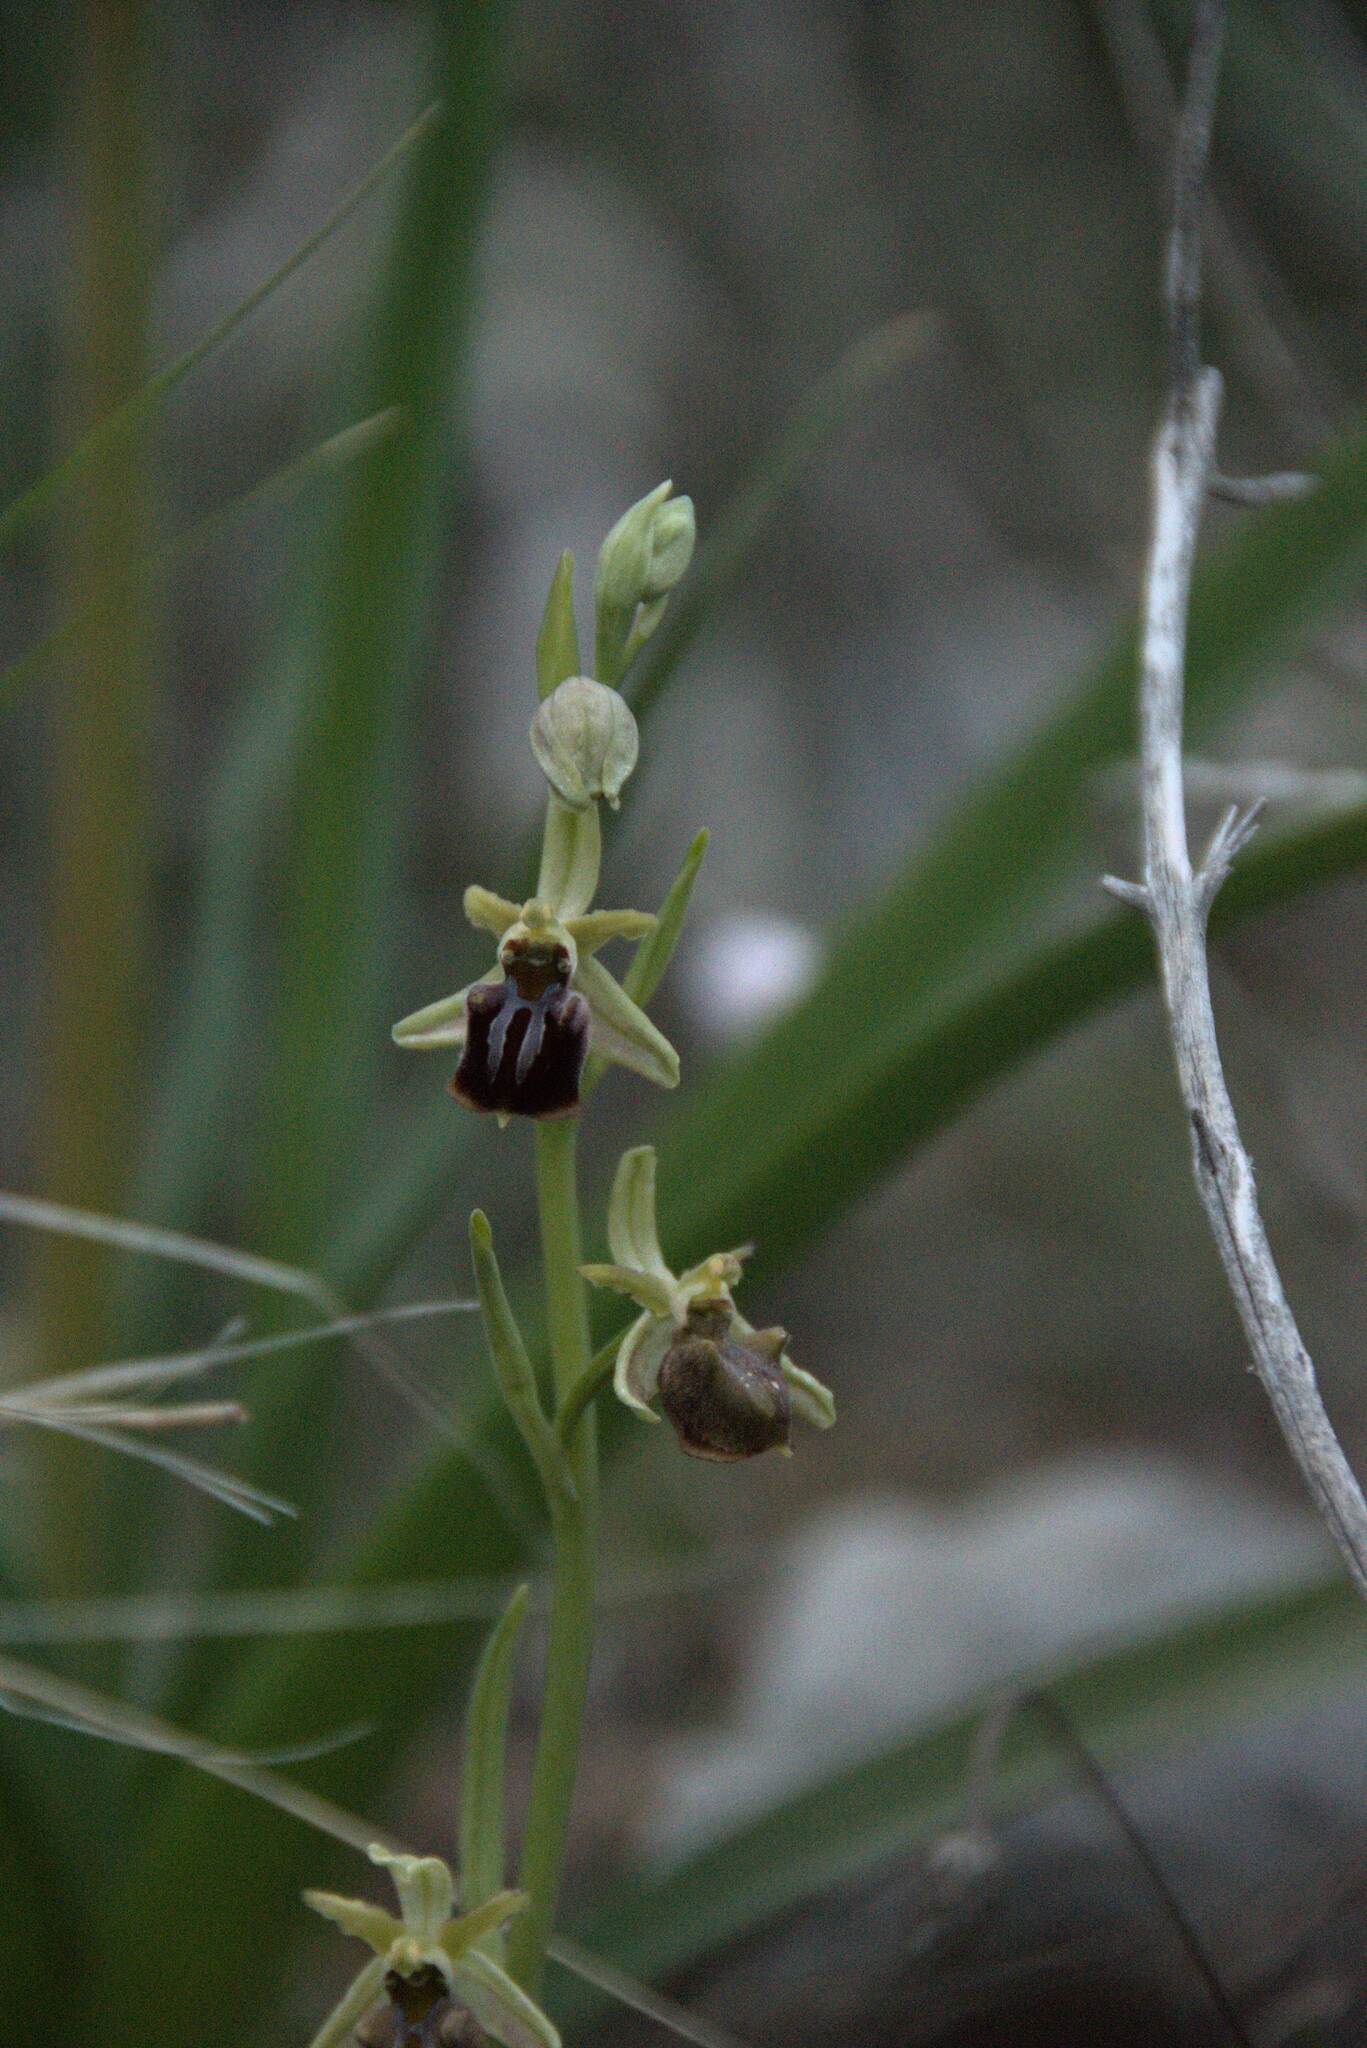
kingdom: Plantae
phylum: Tracheophyta
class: Liliopsida
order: Asparagales
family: Orchidaceae
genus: Ophrys
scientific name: Ophrys sphegodes
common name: Early spider-orchid
